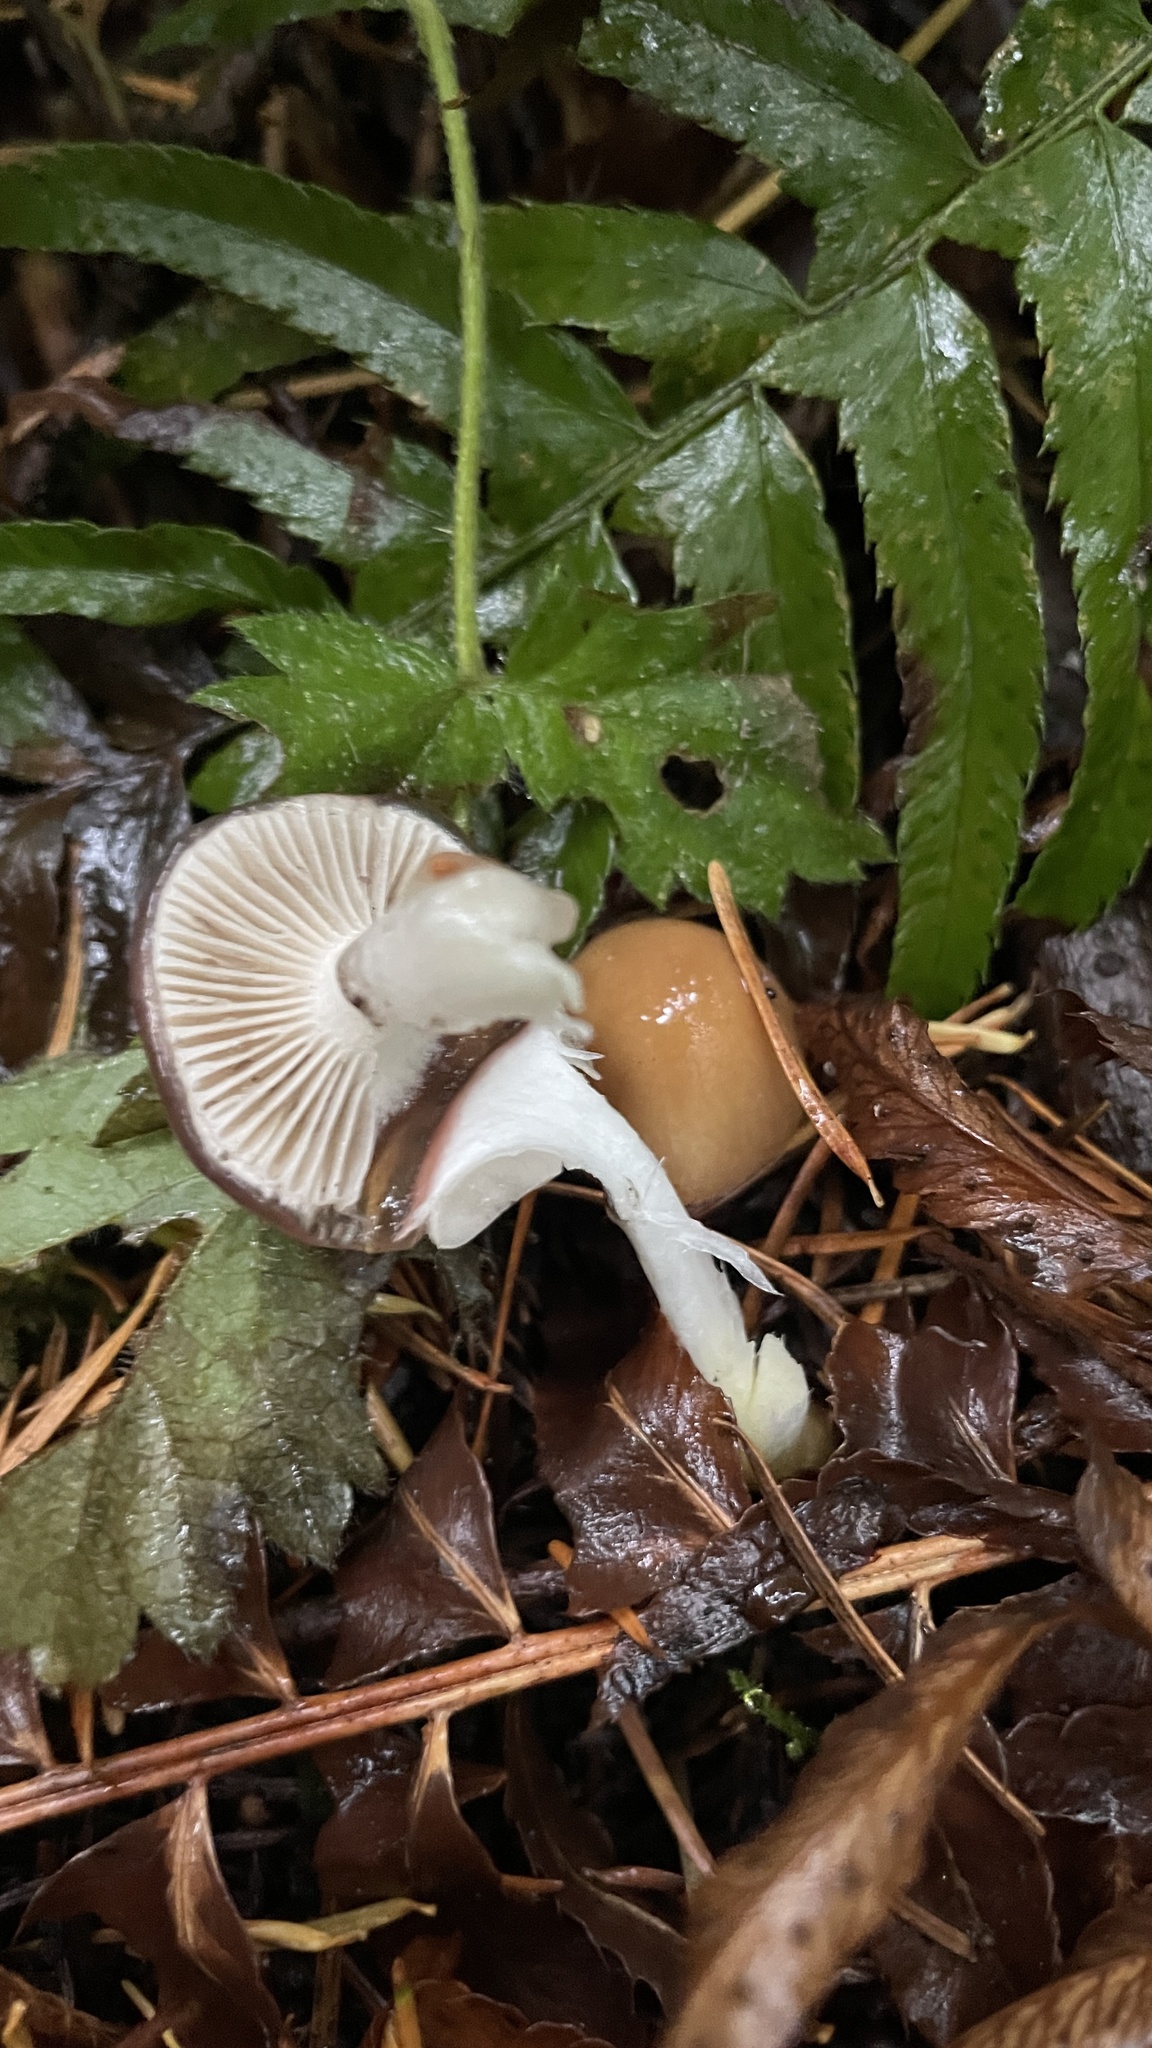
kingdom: Fungi
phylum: Basidiomycota
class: Agaricomycetes
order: Boletales
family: Gomphidiaceae
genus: Gomphidius
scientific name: Gomphidius subroseus
